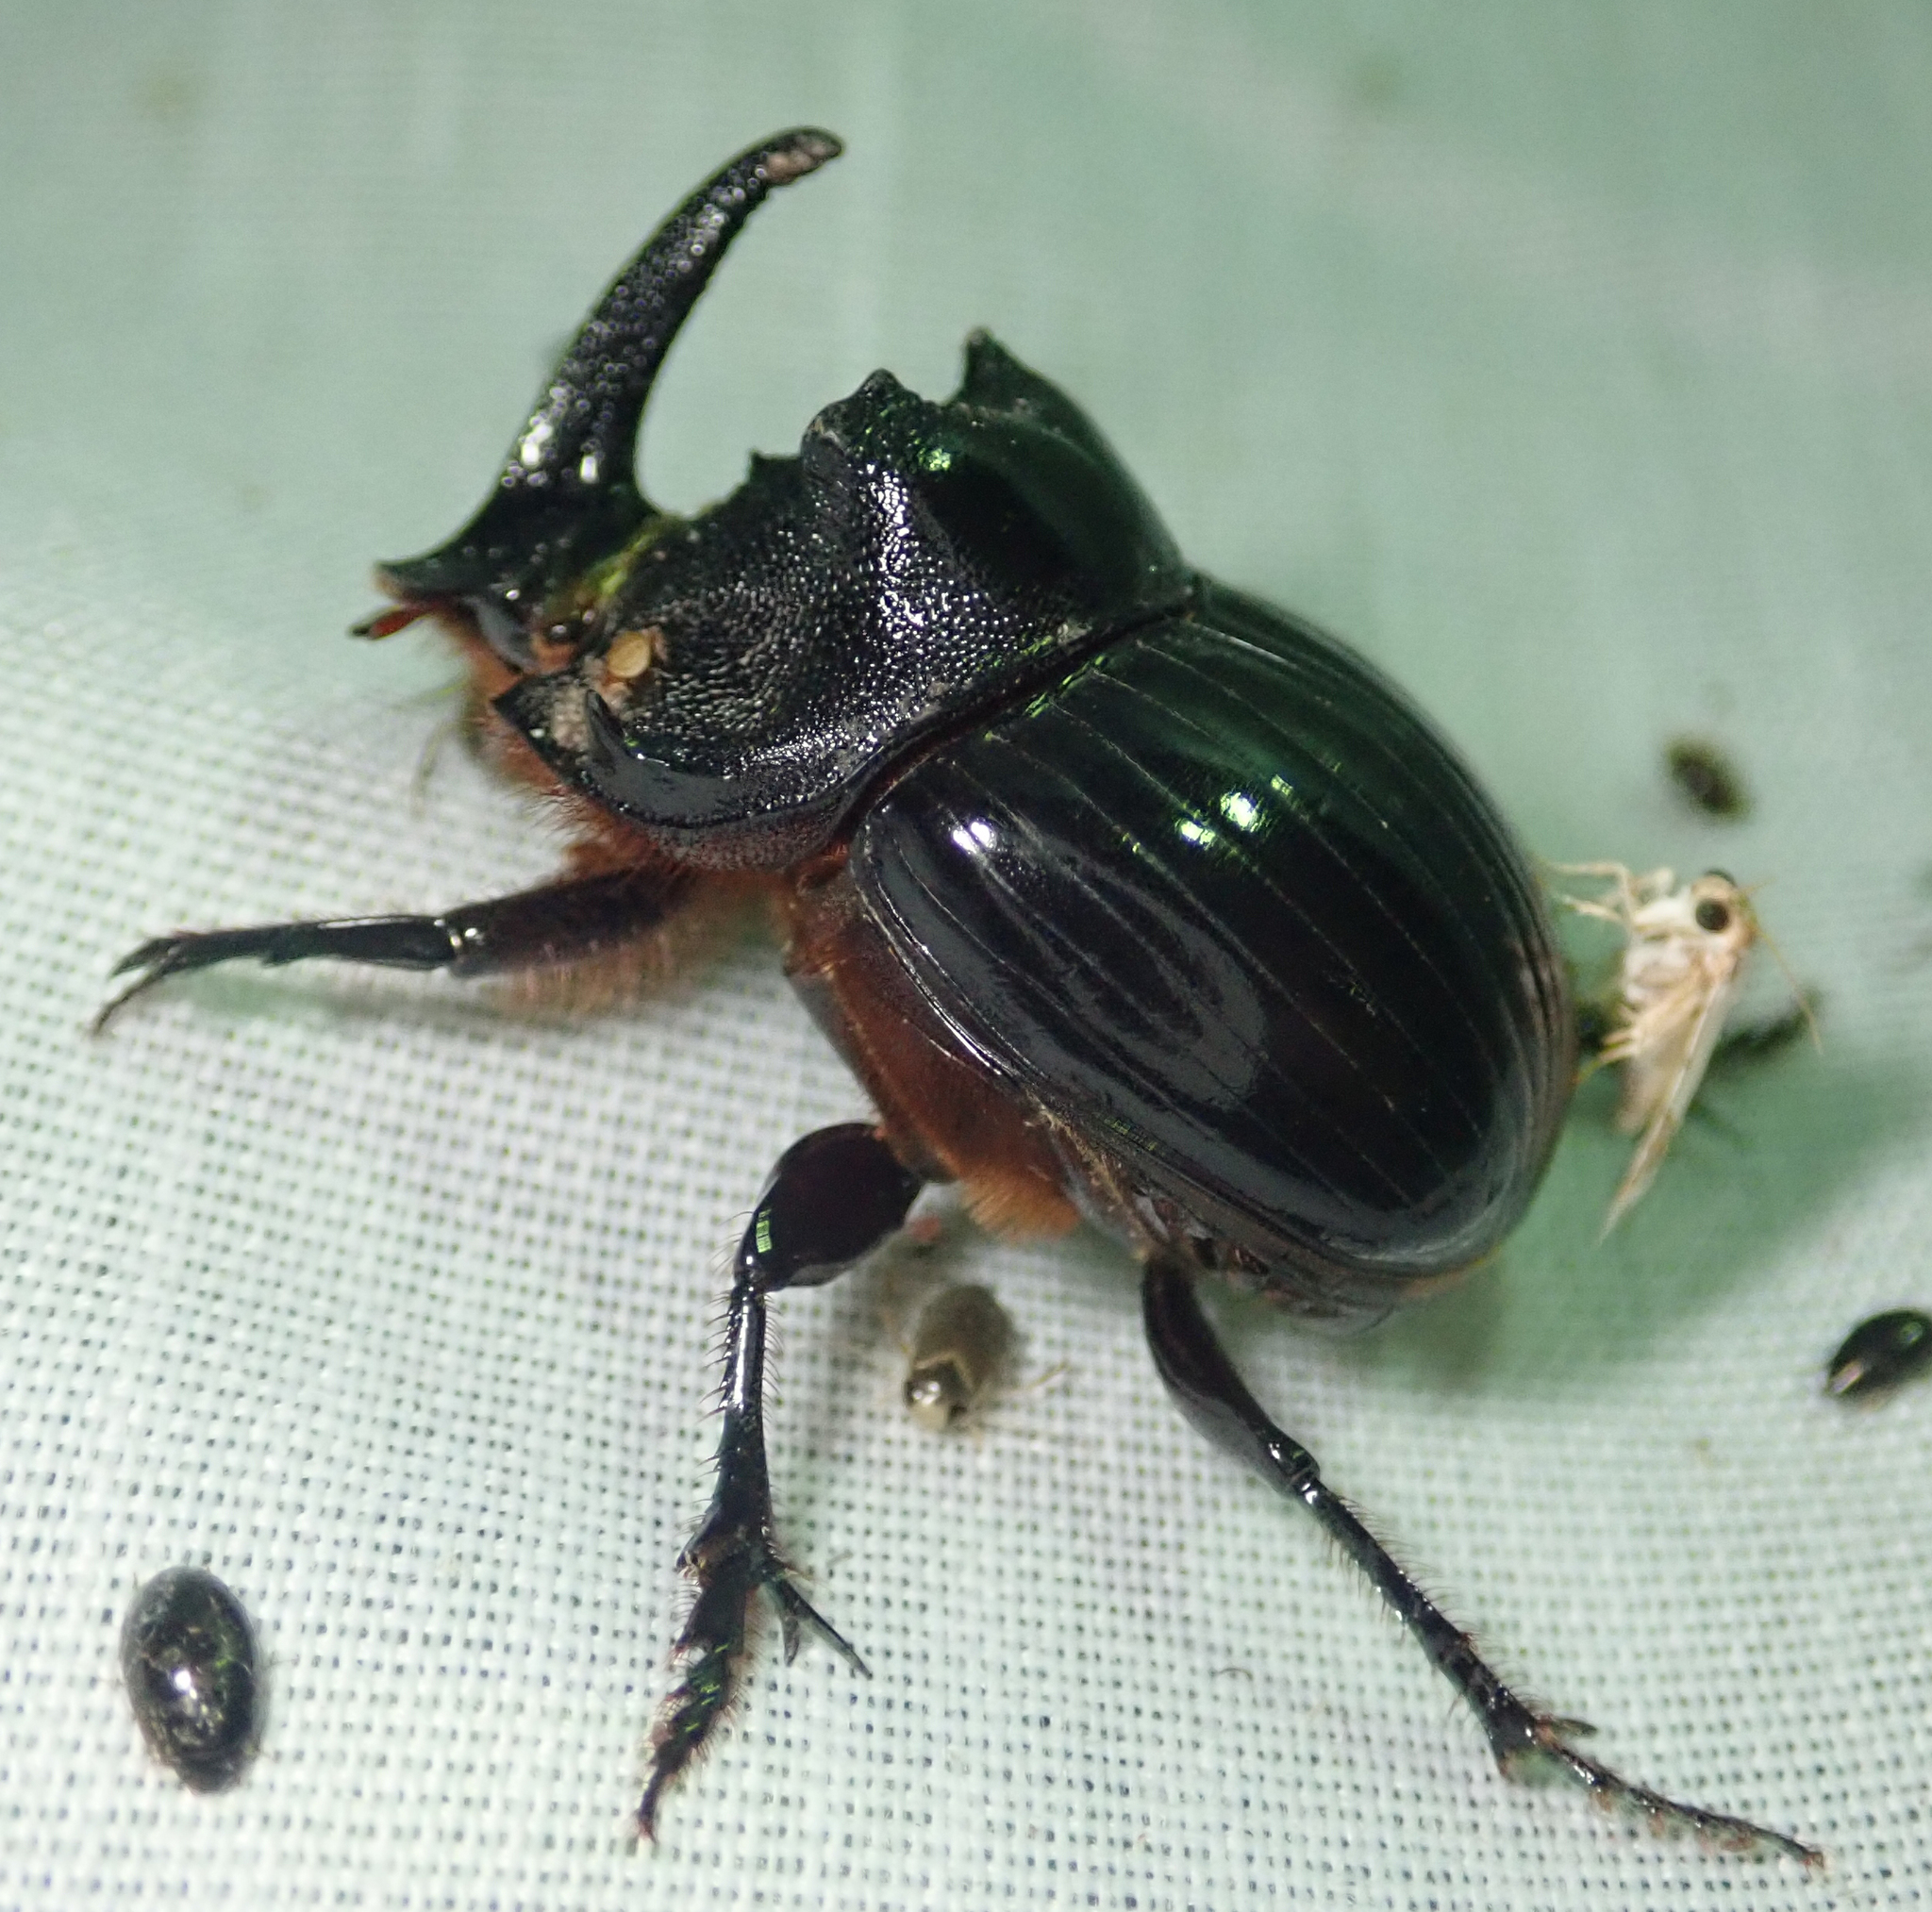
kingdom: Animalia
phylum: Arthropoda
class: Insecta
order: Coleoptera
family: Scarabaeidae
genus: Copris
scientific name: Copris elphenor
